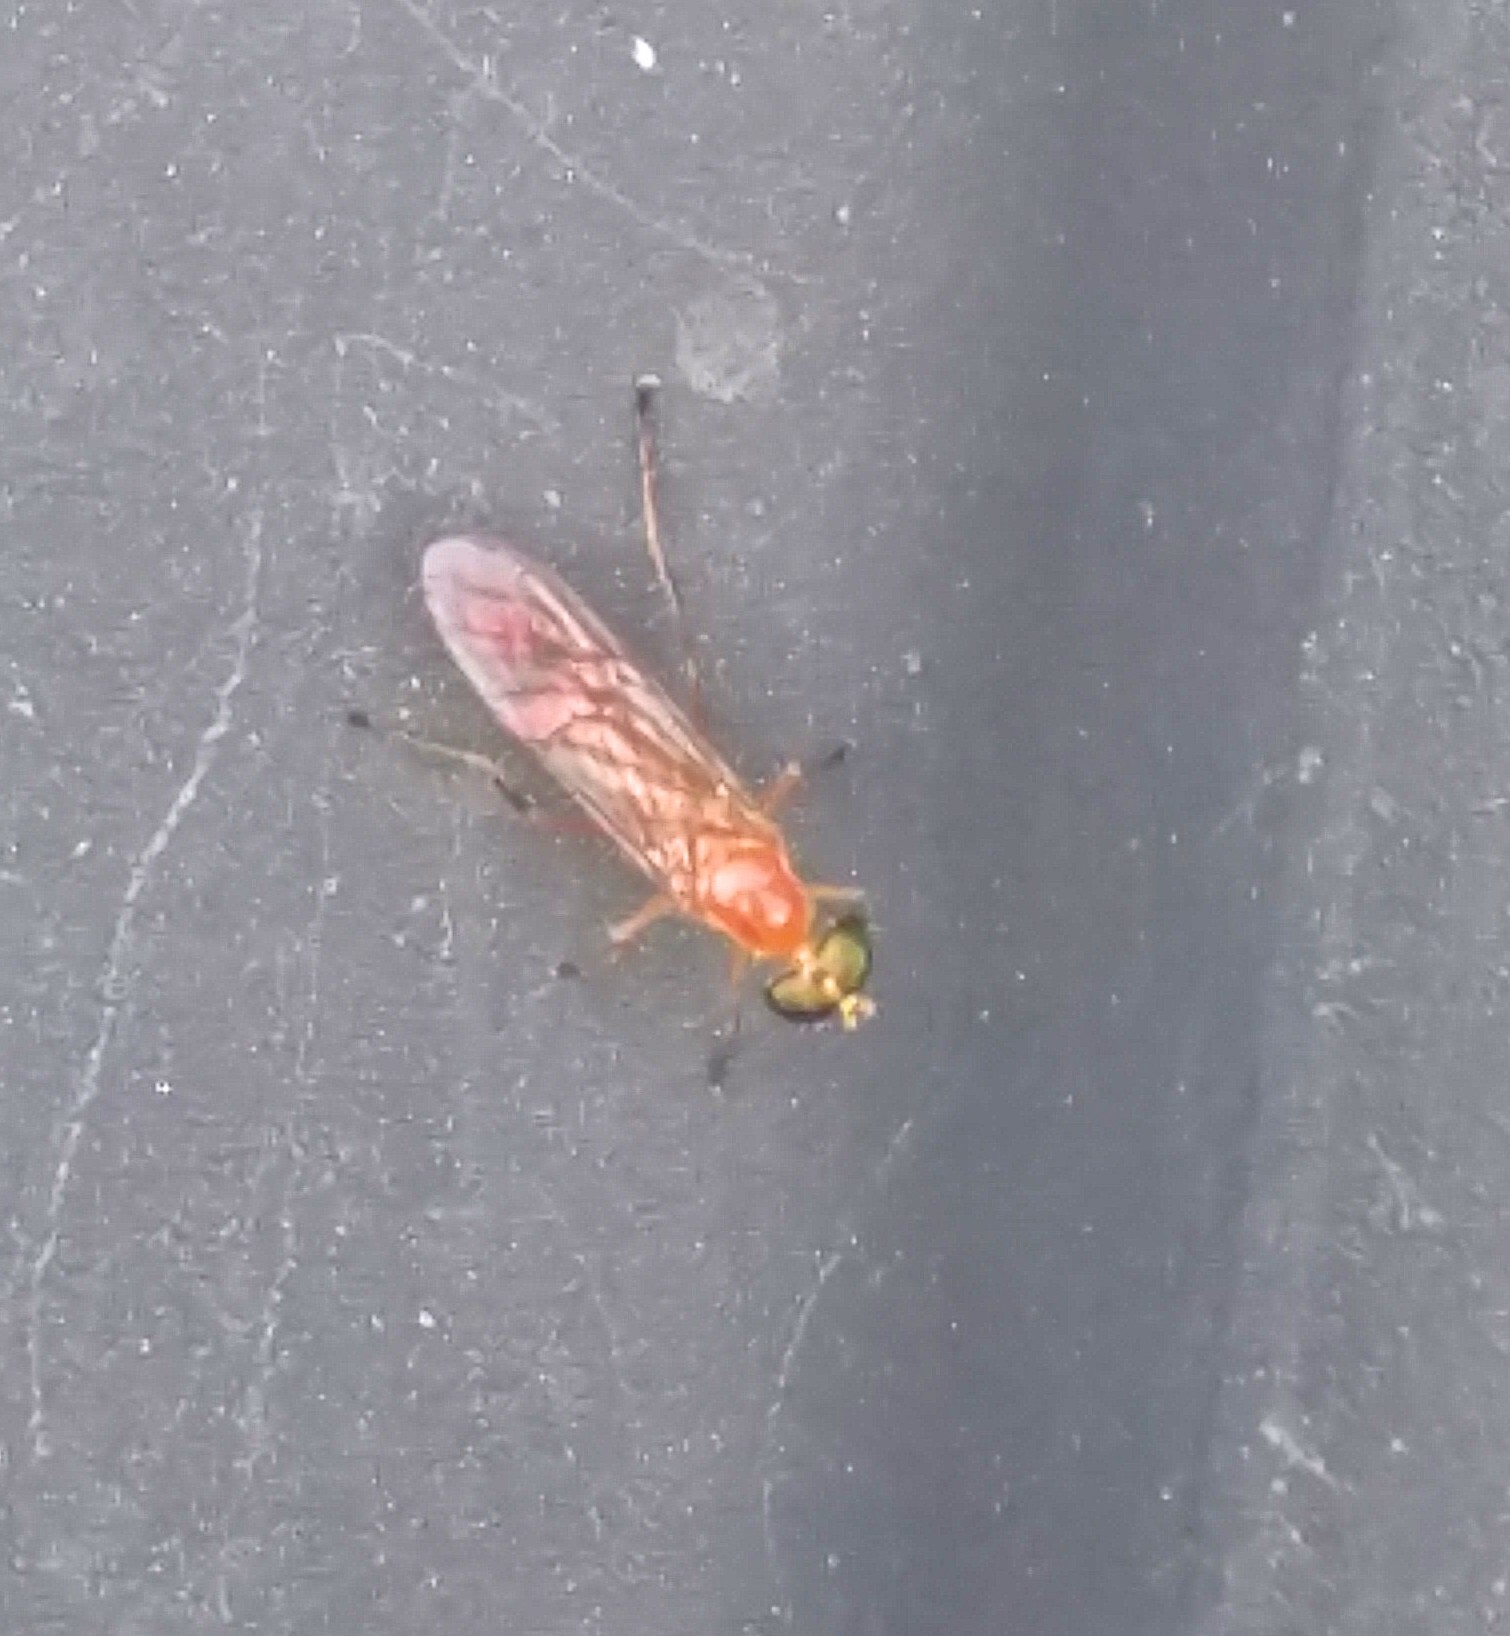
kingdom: Animalia
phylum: Arthropoda
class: Insecta
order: Diptera
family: Stratiomyidae
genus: Ptecticus
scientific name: Ptecticus trivittatus
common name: Compost fly
